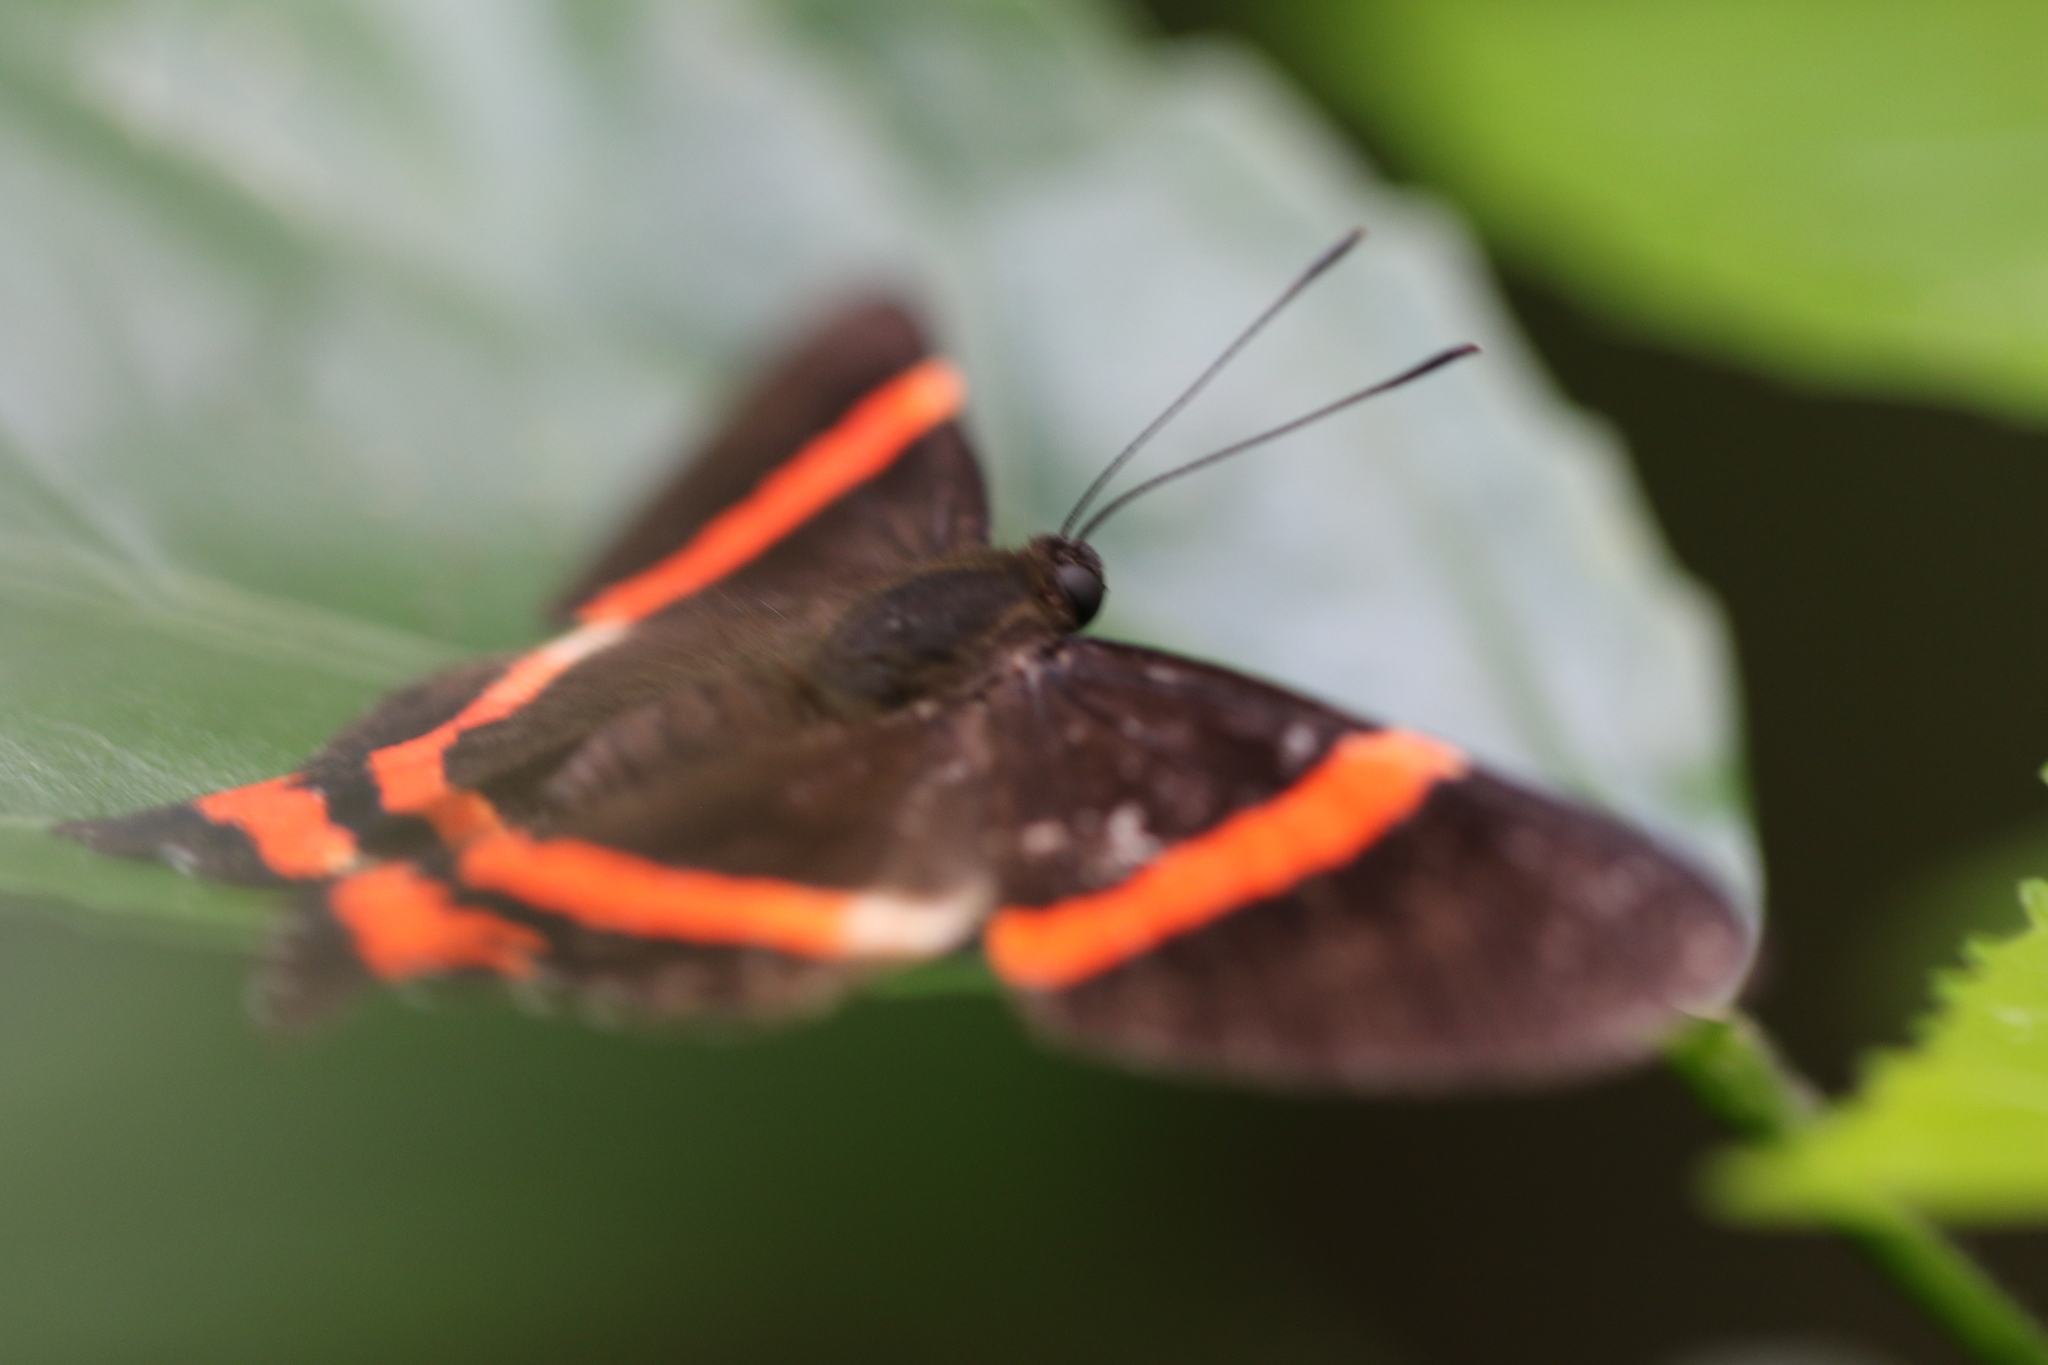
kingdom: Animalia
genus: Ancyluris
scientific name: Ancyluris aulestes
